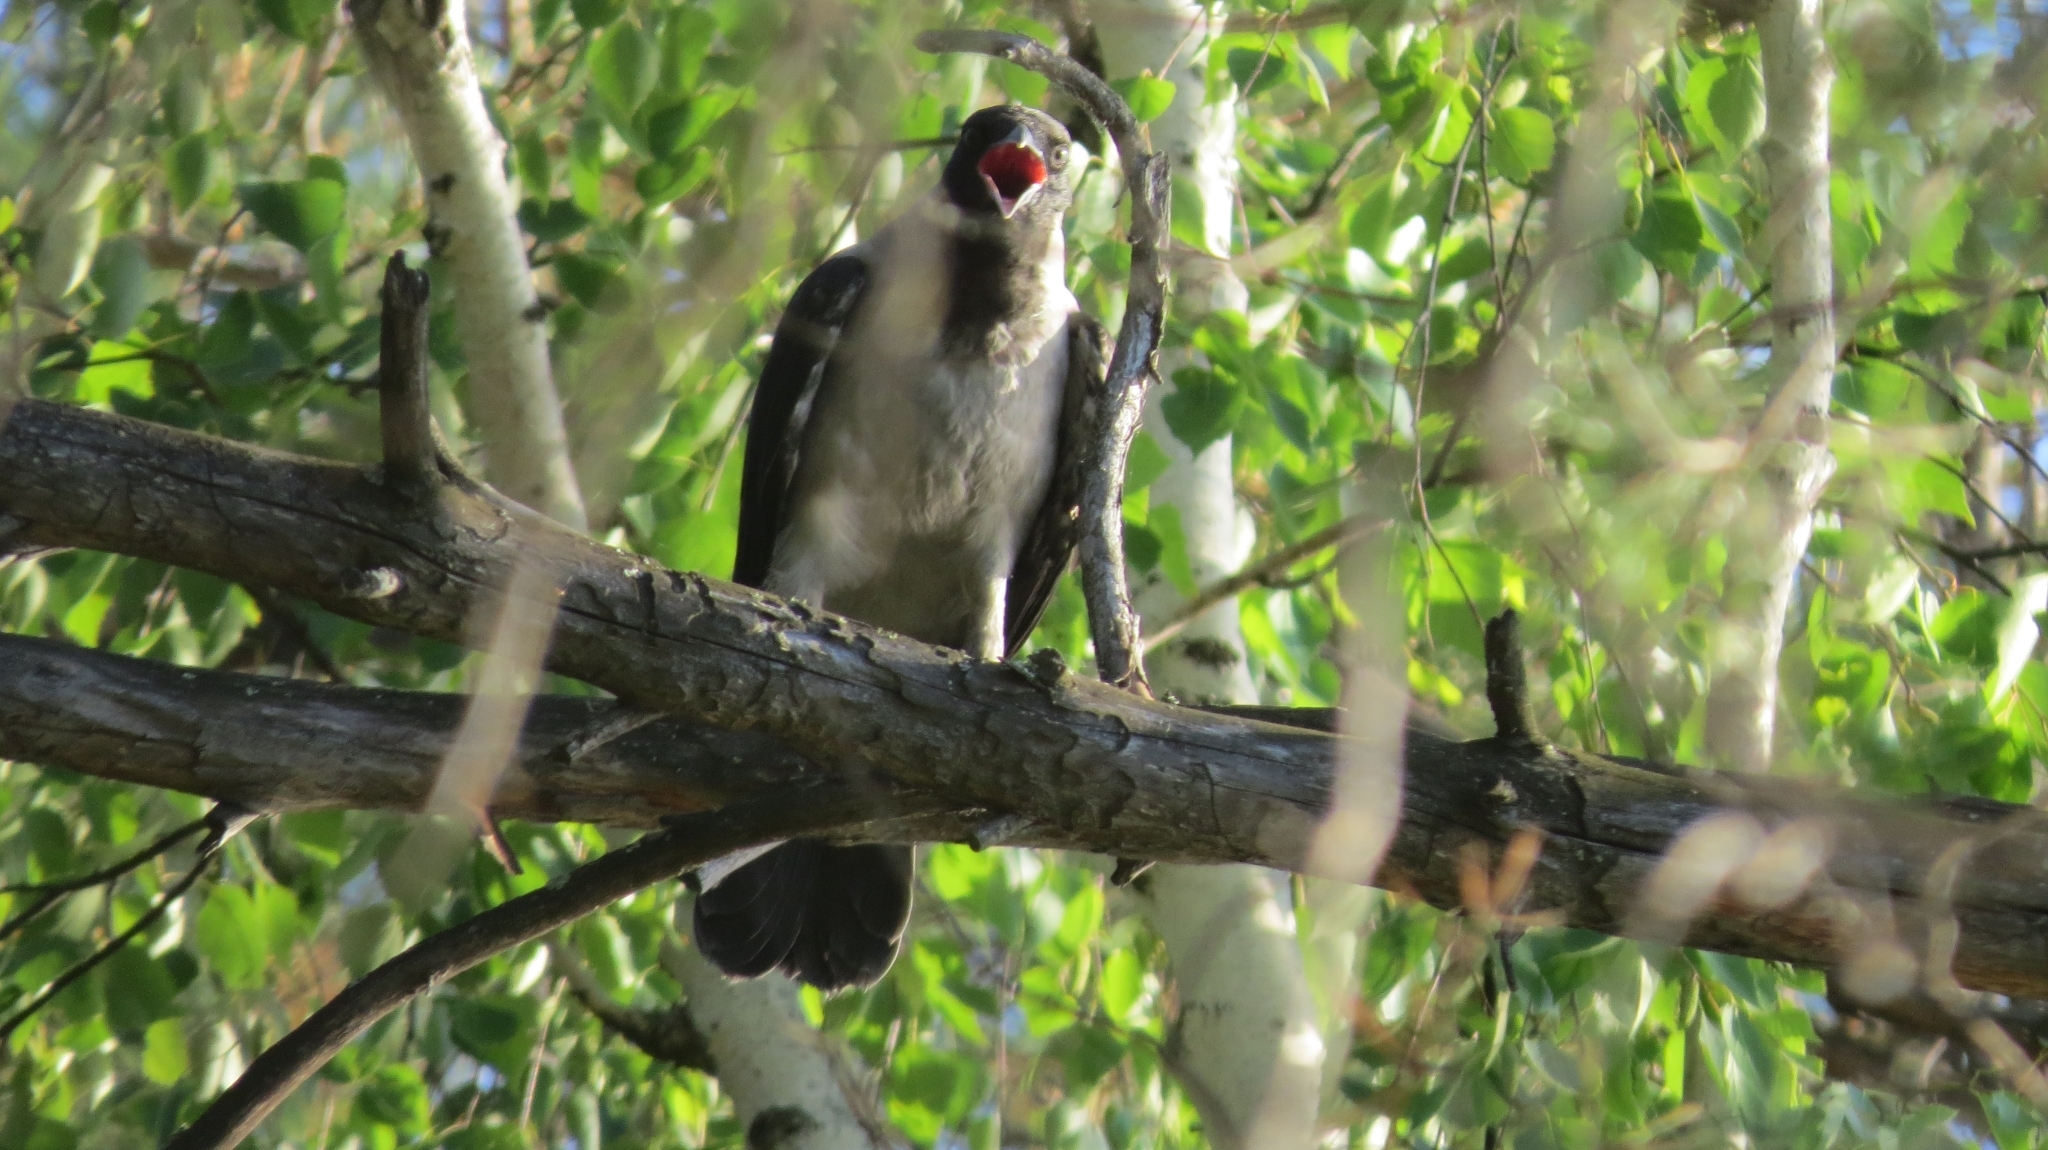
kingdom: Animalia
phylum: Chordata
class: Aves
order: Passeriformes
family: Corvidae
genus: Corvus
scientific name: Corvus cornix
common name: Hooded crow
